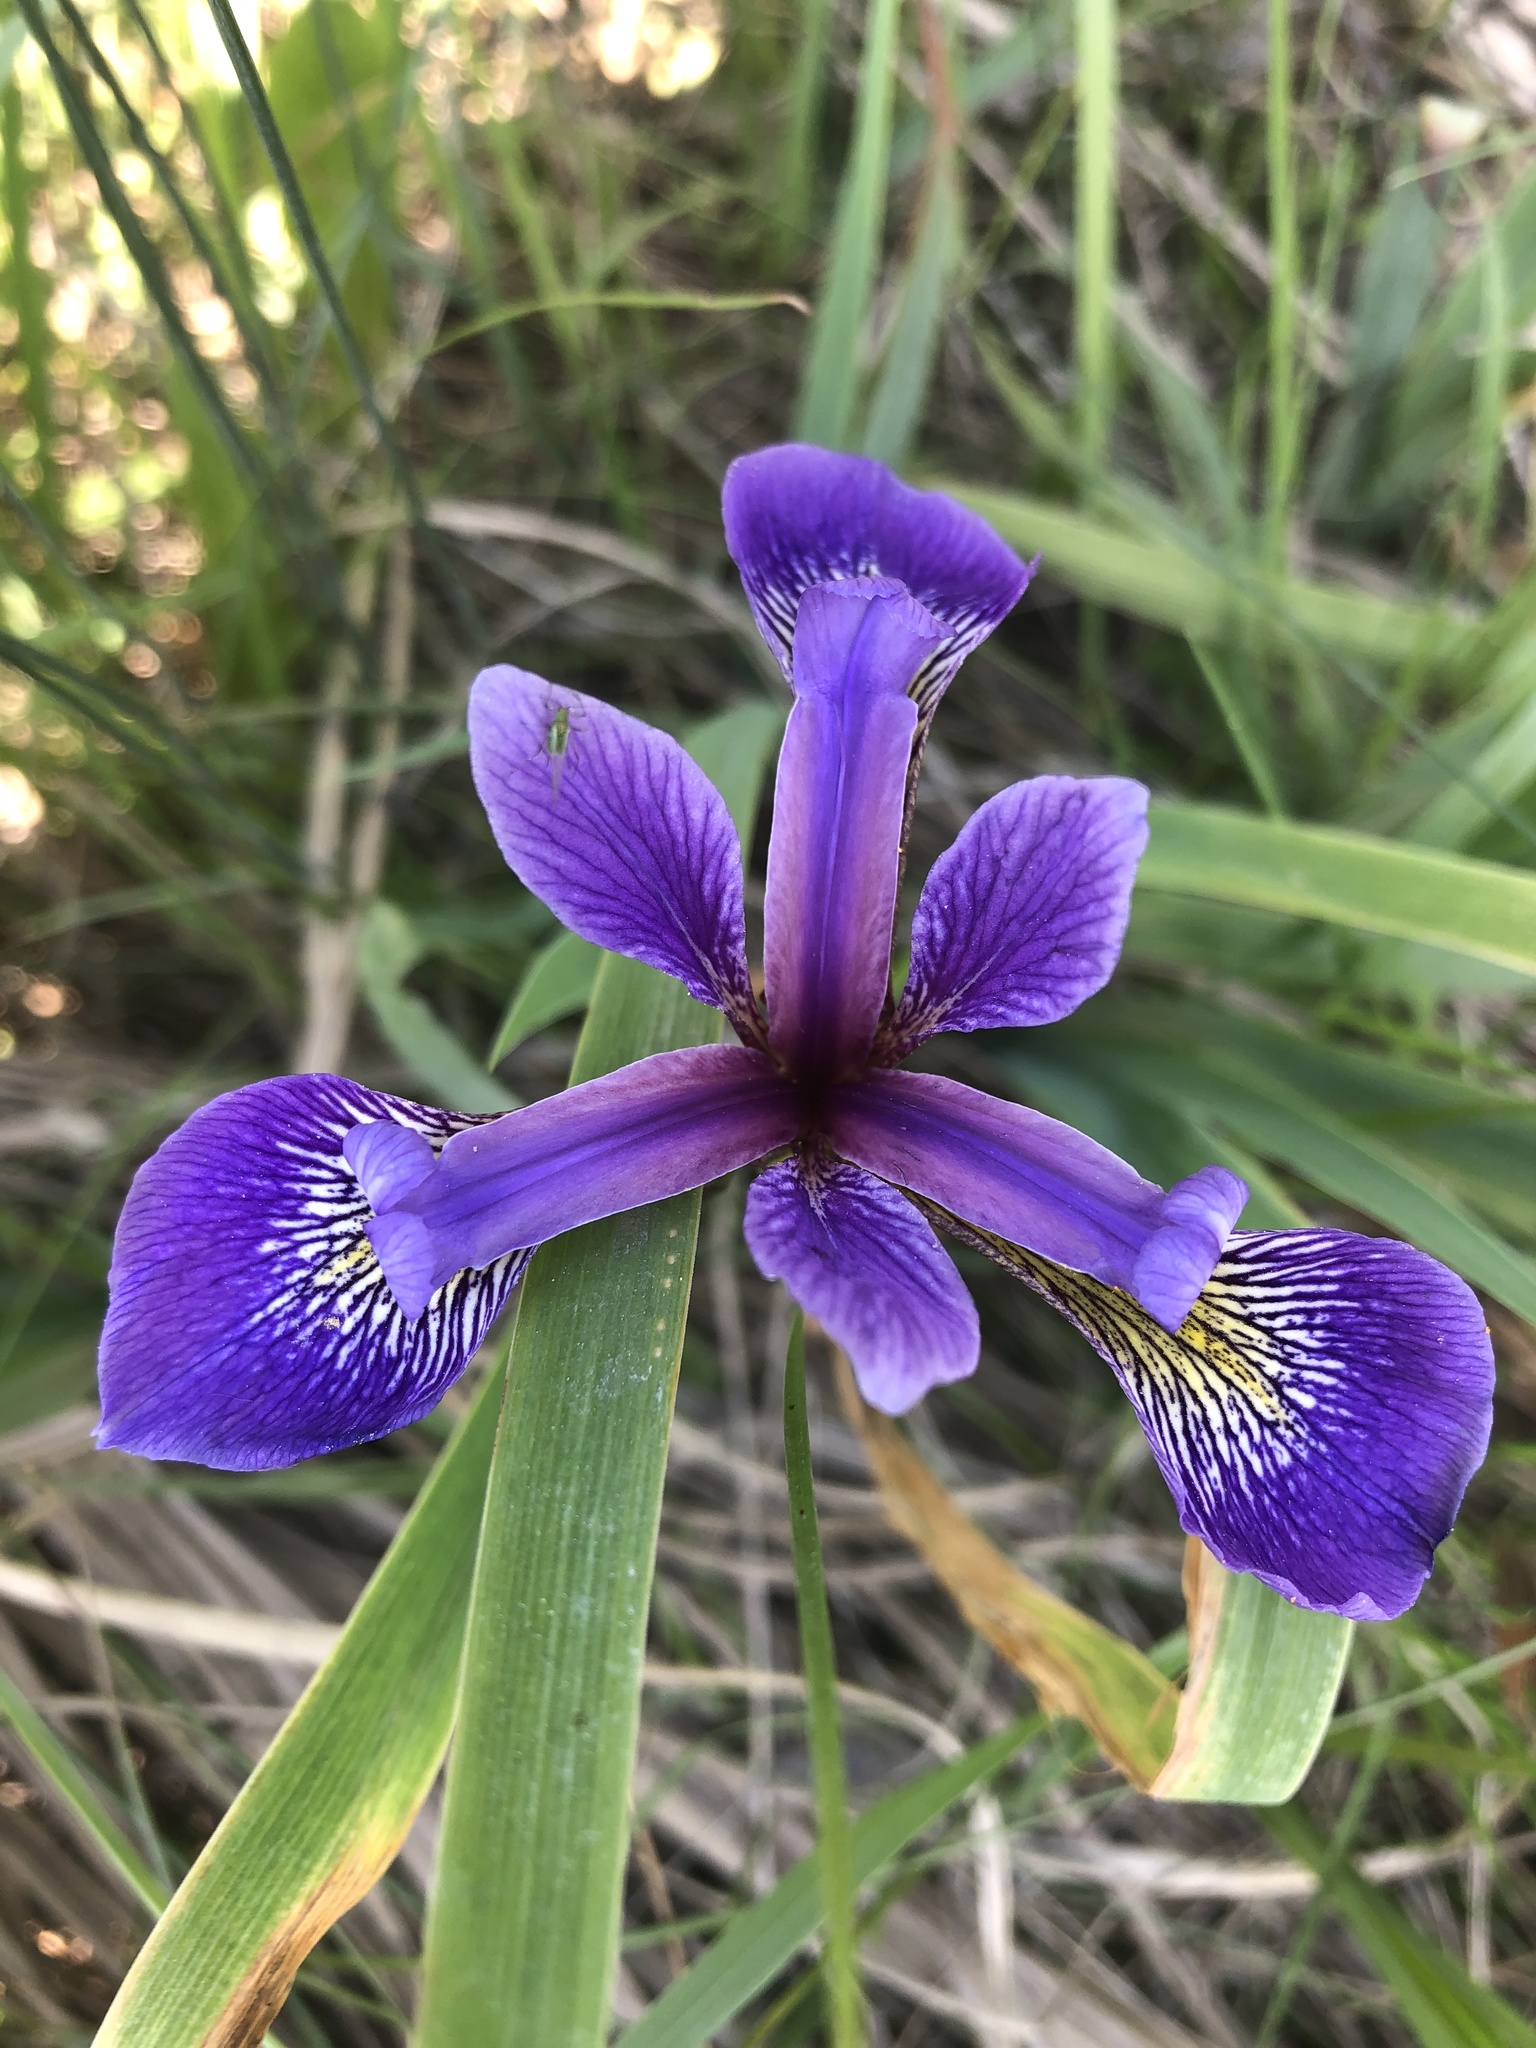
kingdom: Plantae
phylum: Tracheophyta
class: Liliopsida
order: Asparagales
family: Iridaceae
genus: Iris
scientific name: Iris versicolor
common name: Purple iris
